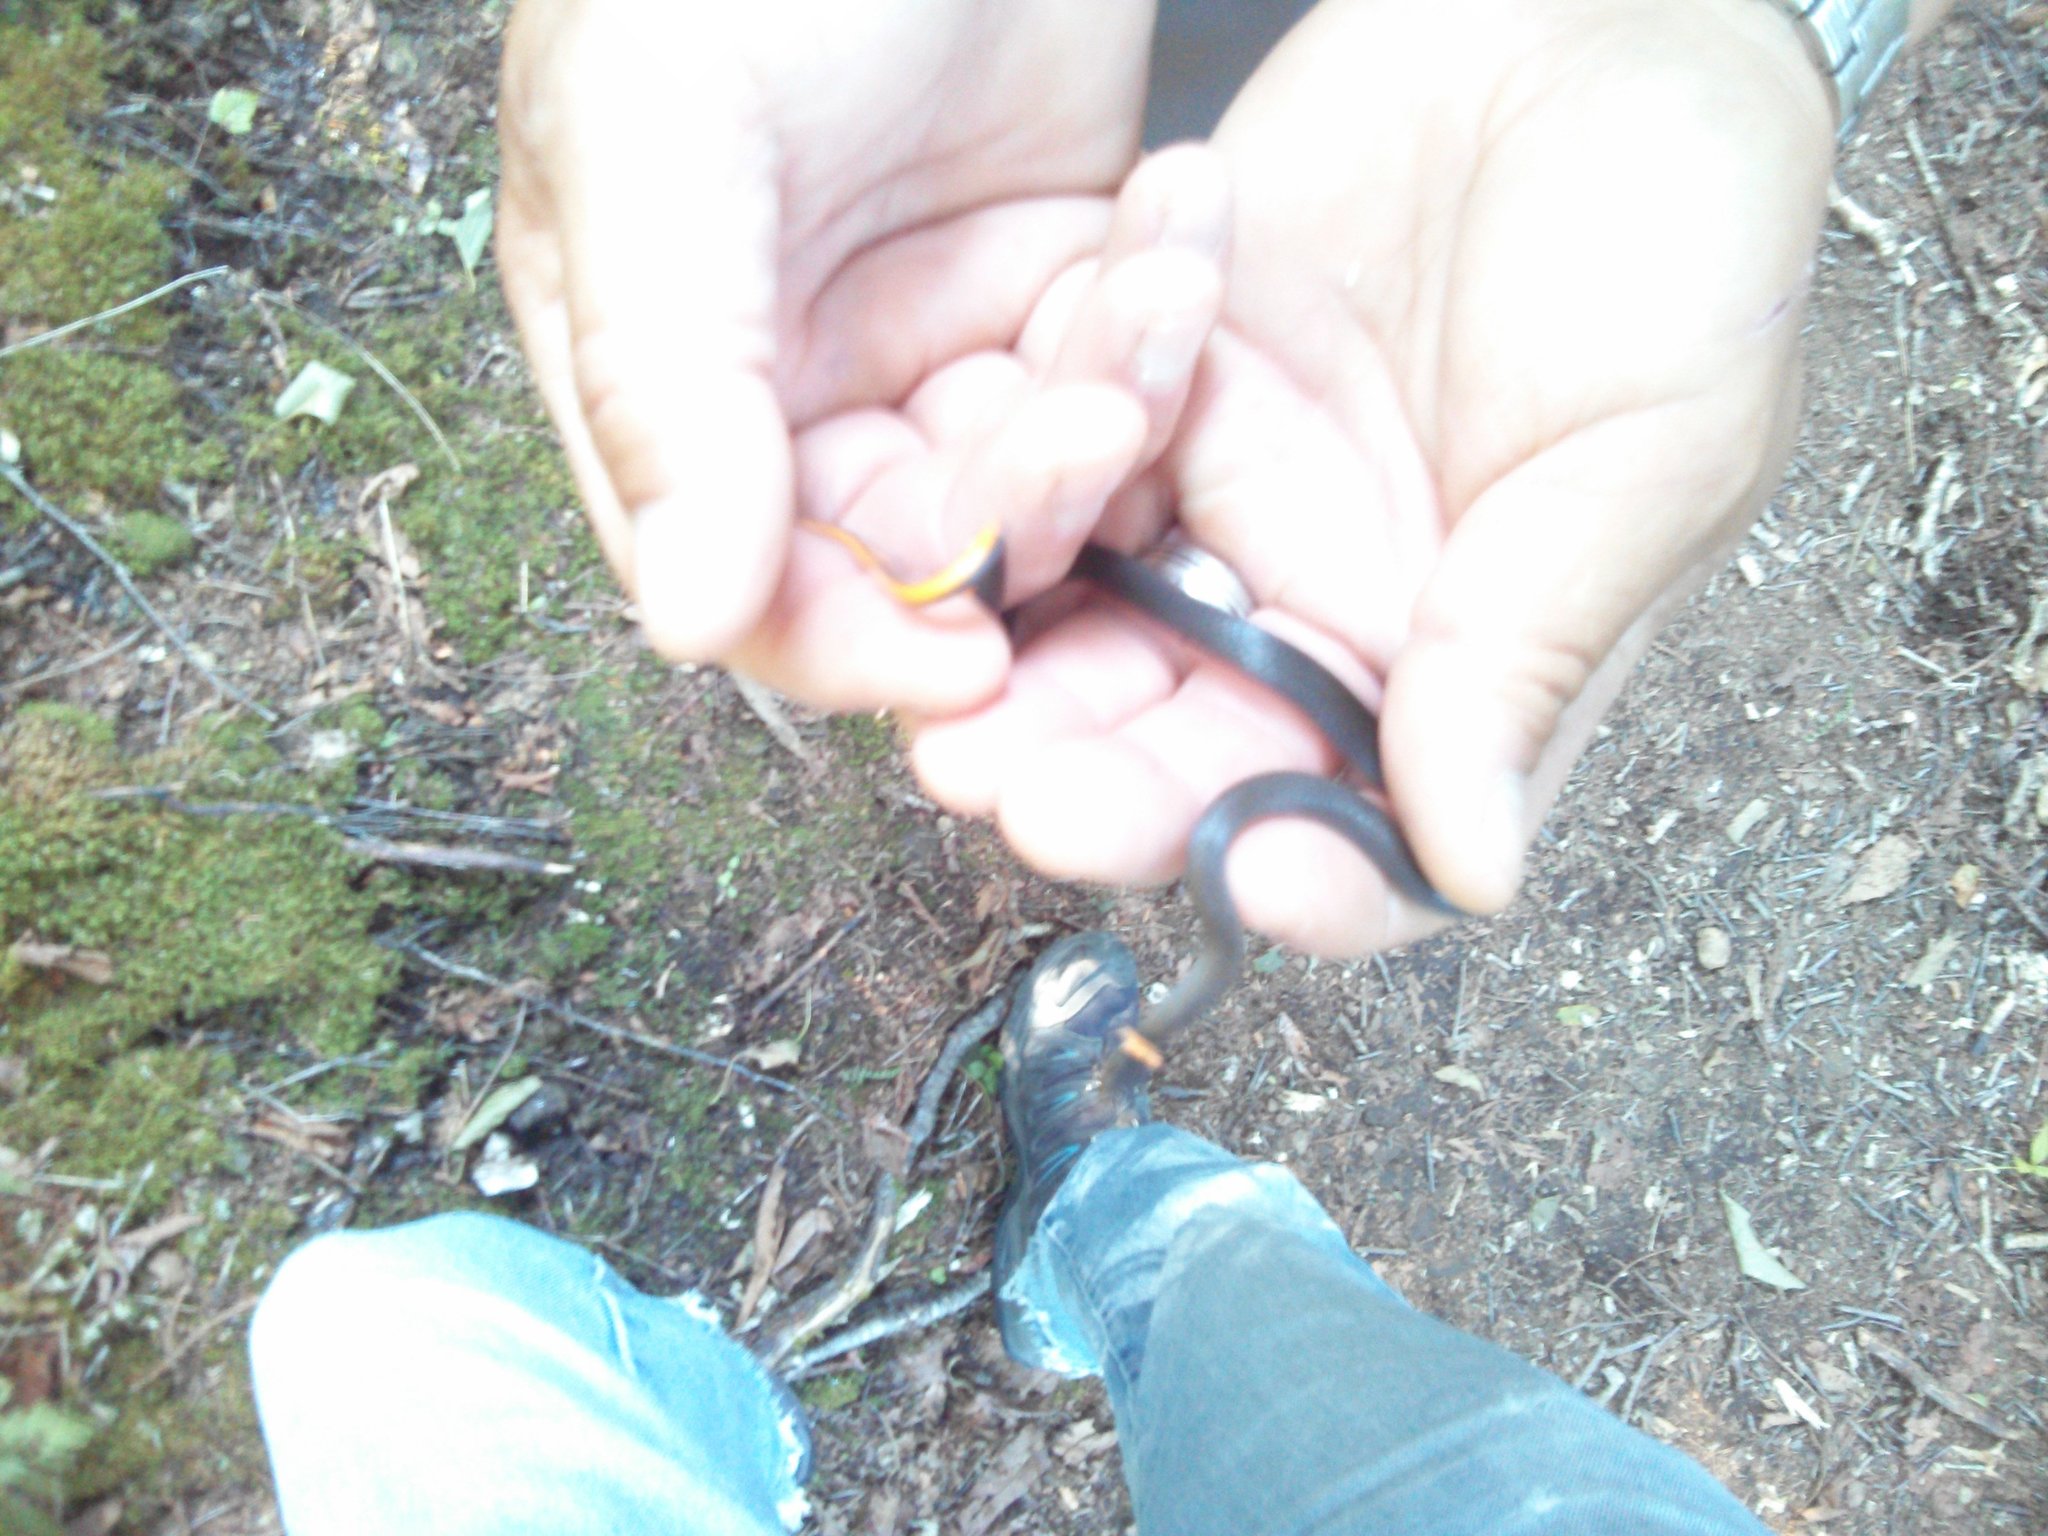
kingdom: Animalia
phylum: Chordata
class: Squamata
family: Colubridae
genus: Diadophis
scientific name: Diadophis punctatus
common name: Ringneck snake
